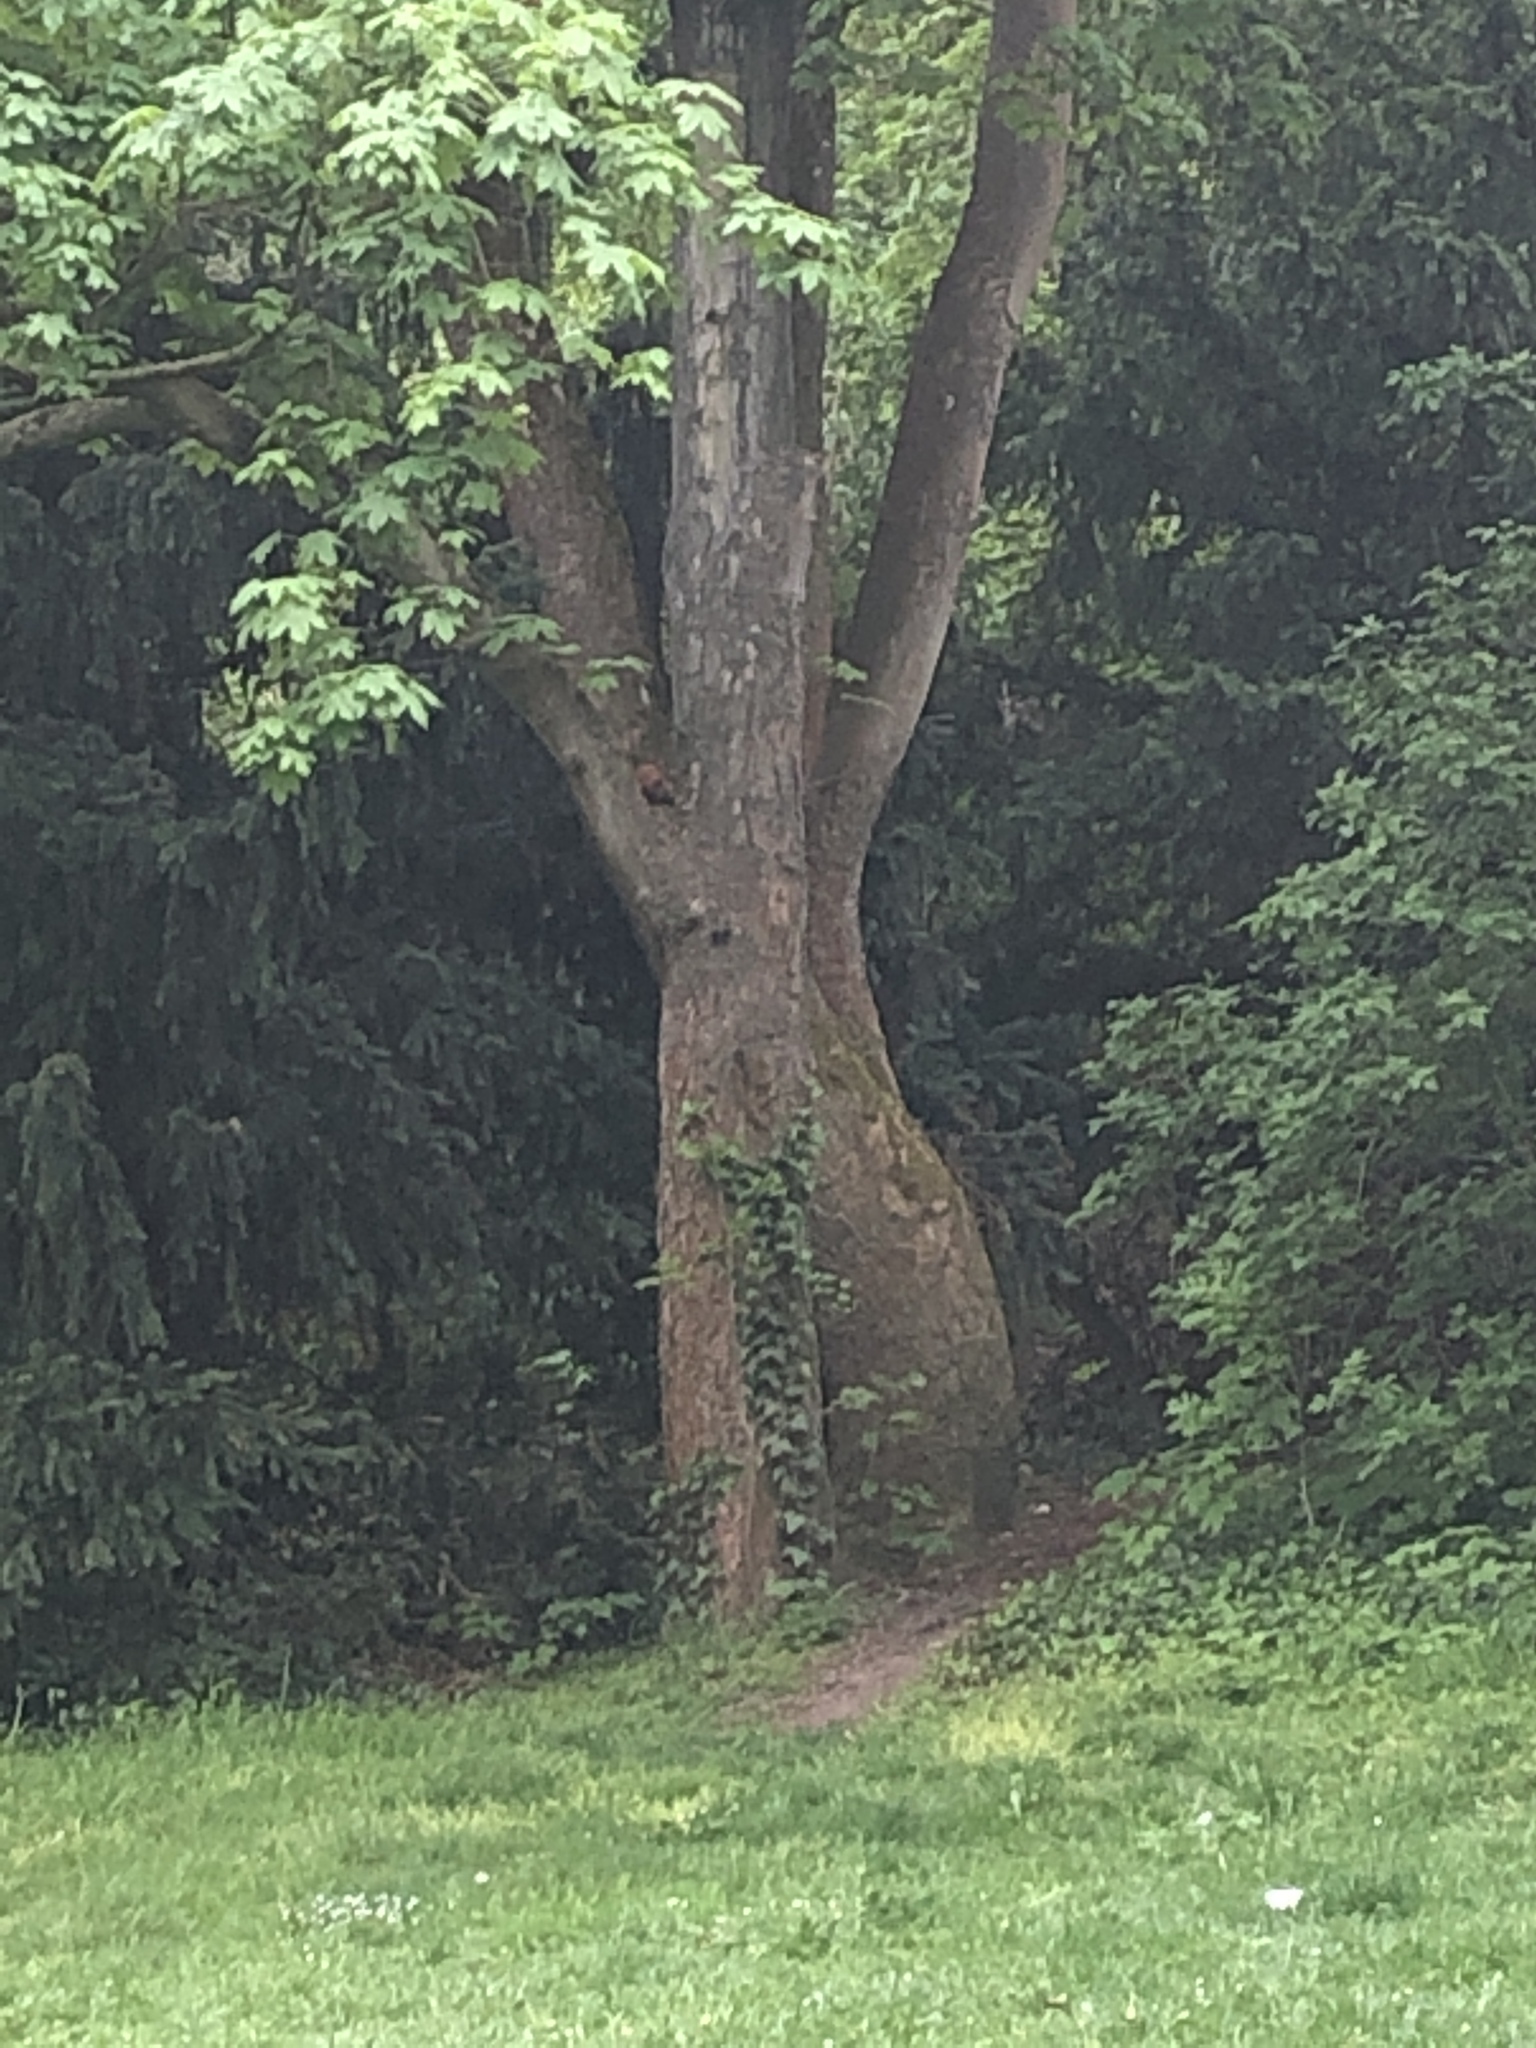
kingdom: Animalia
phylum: Chordata
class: Mammalia
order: Rodentia
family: Sciuridae
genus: Sciurus
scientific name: Sciurus vulgaris
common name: Eurasian red squirrel
